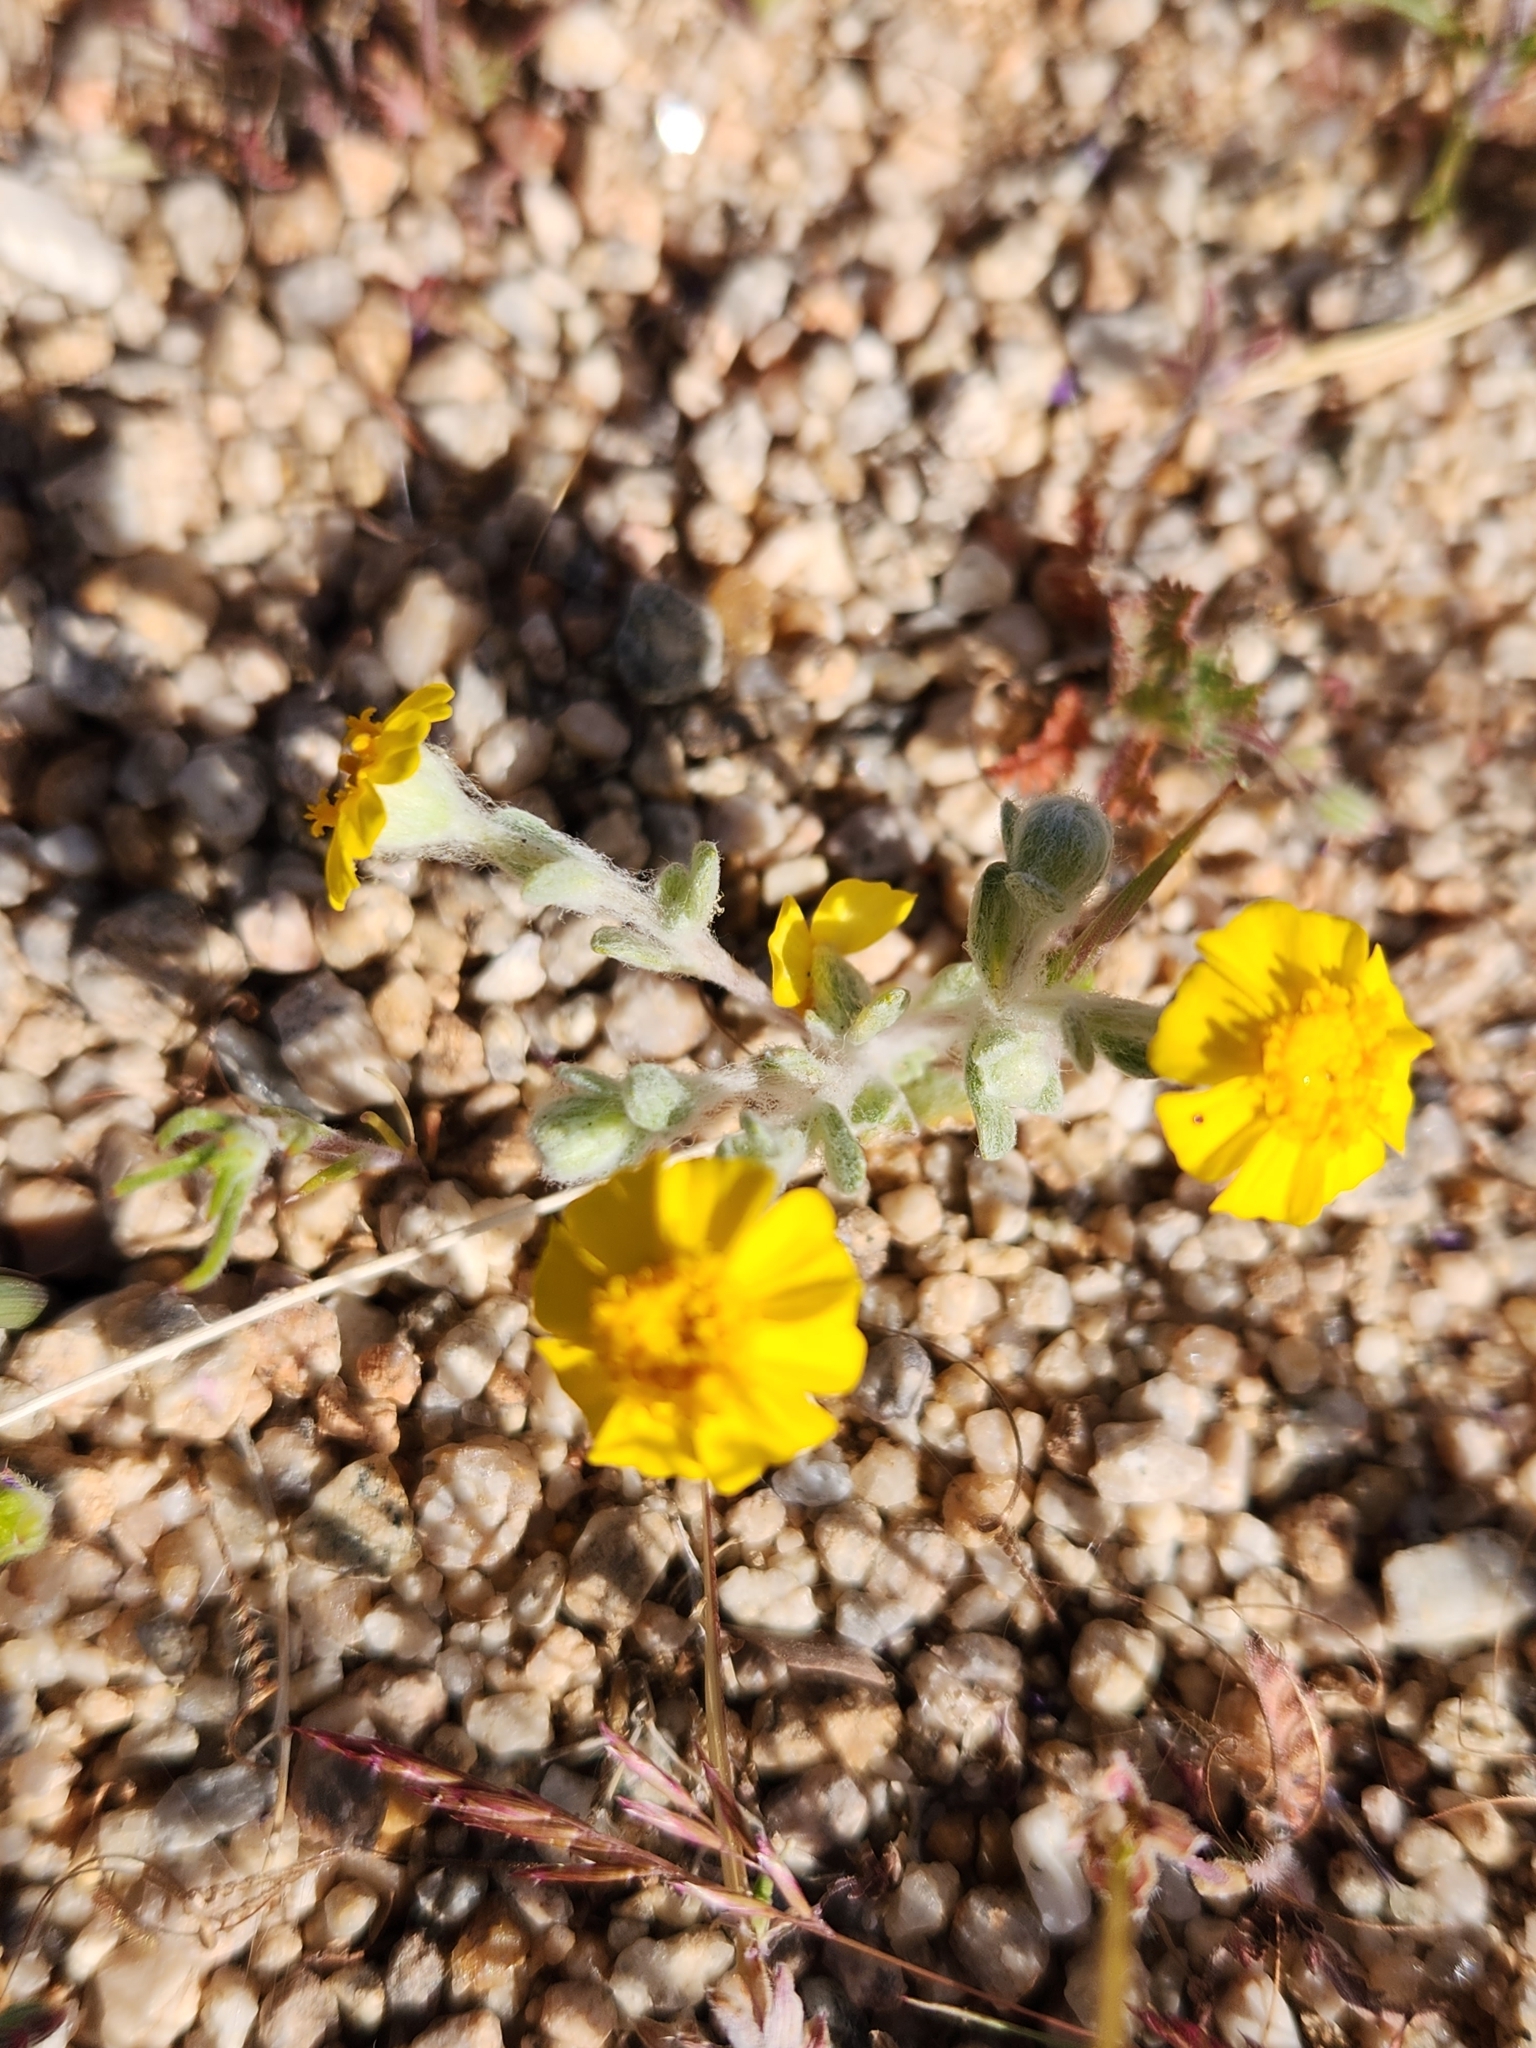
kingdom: Plantae
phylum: Tracheophyta
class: Magnoliopsida
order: Asterales
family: Asteraceae
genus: Eriophyllum
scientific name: Eriophyllum wallacei
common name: Wallace's woolly daisy
